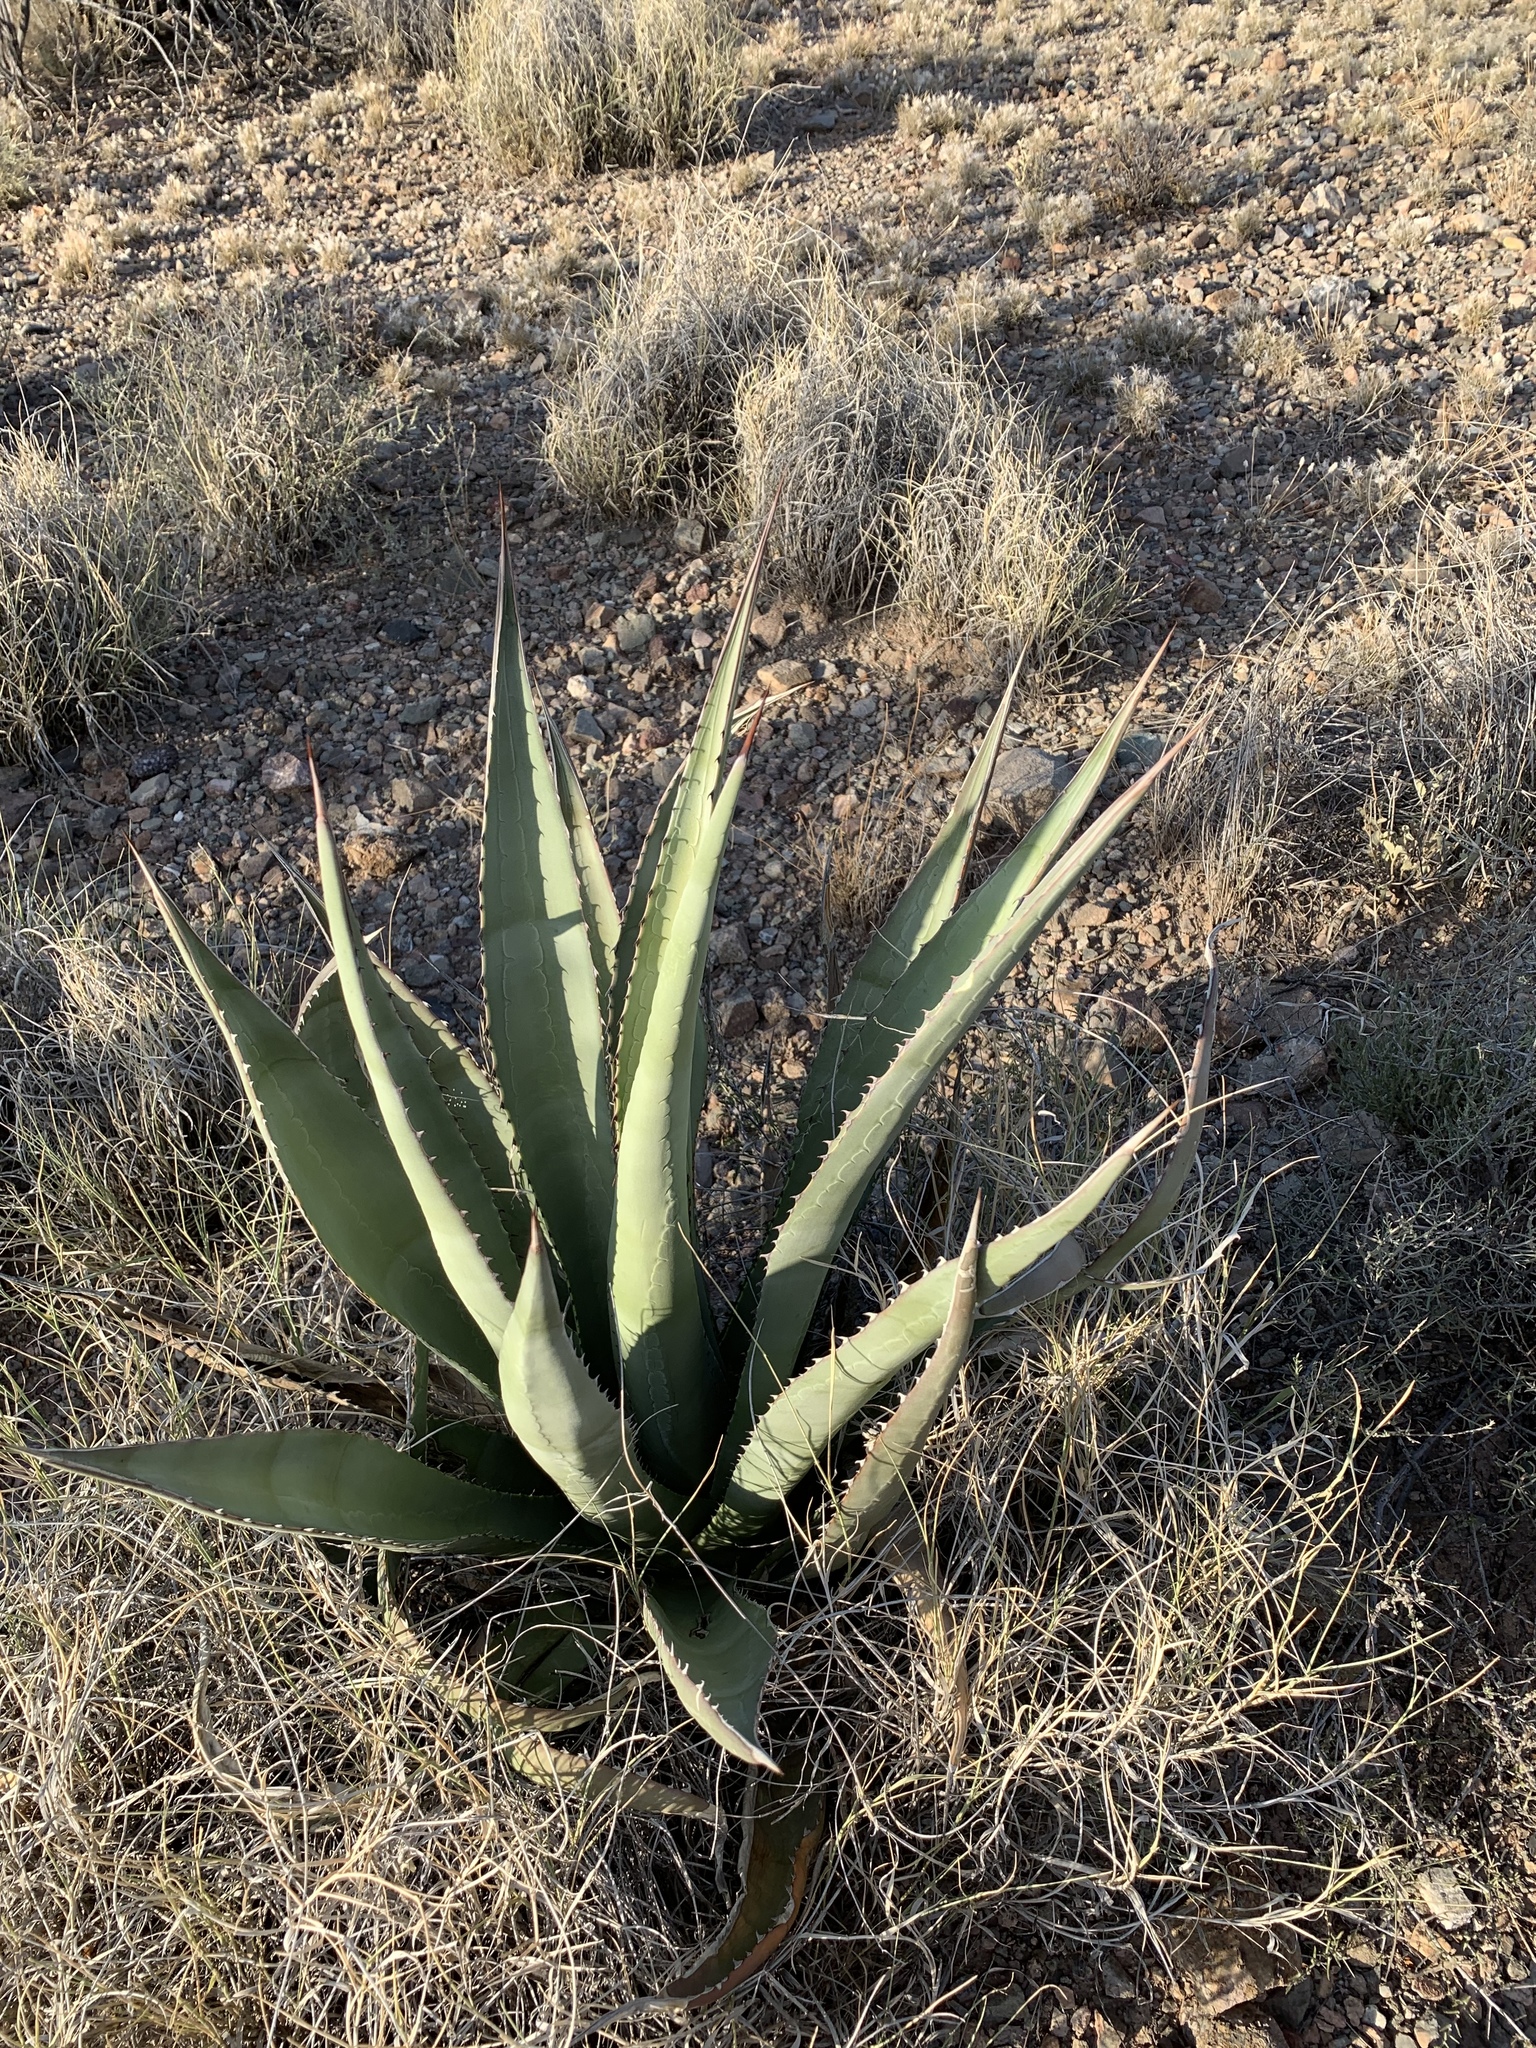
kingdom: Plantae
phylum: Tracheophyta
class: Liliopsida
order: Asparagales
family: Asparagaceae
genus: Agave
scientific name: Agave palmeri
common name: Palmer agave
